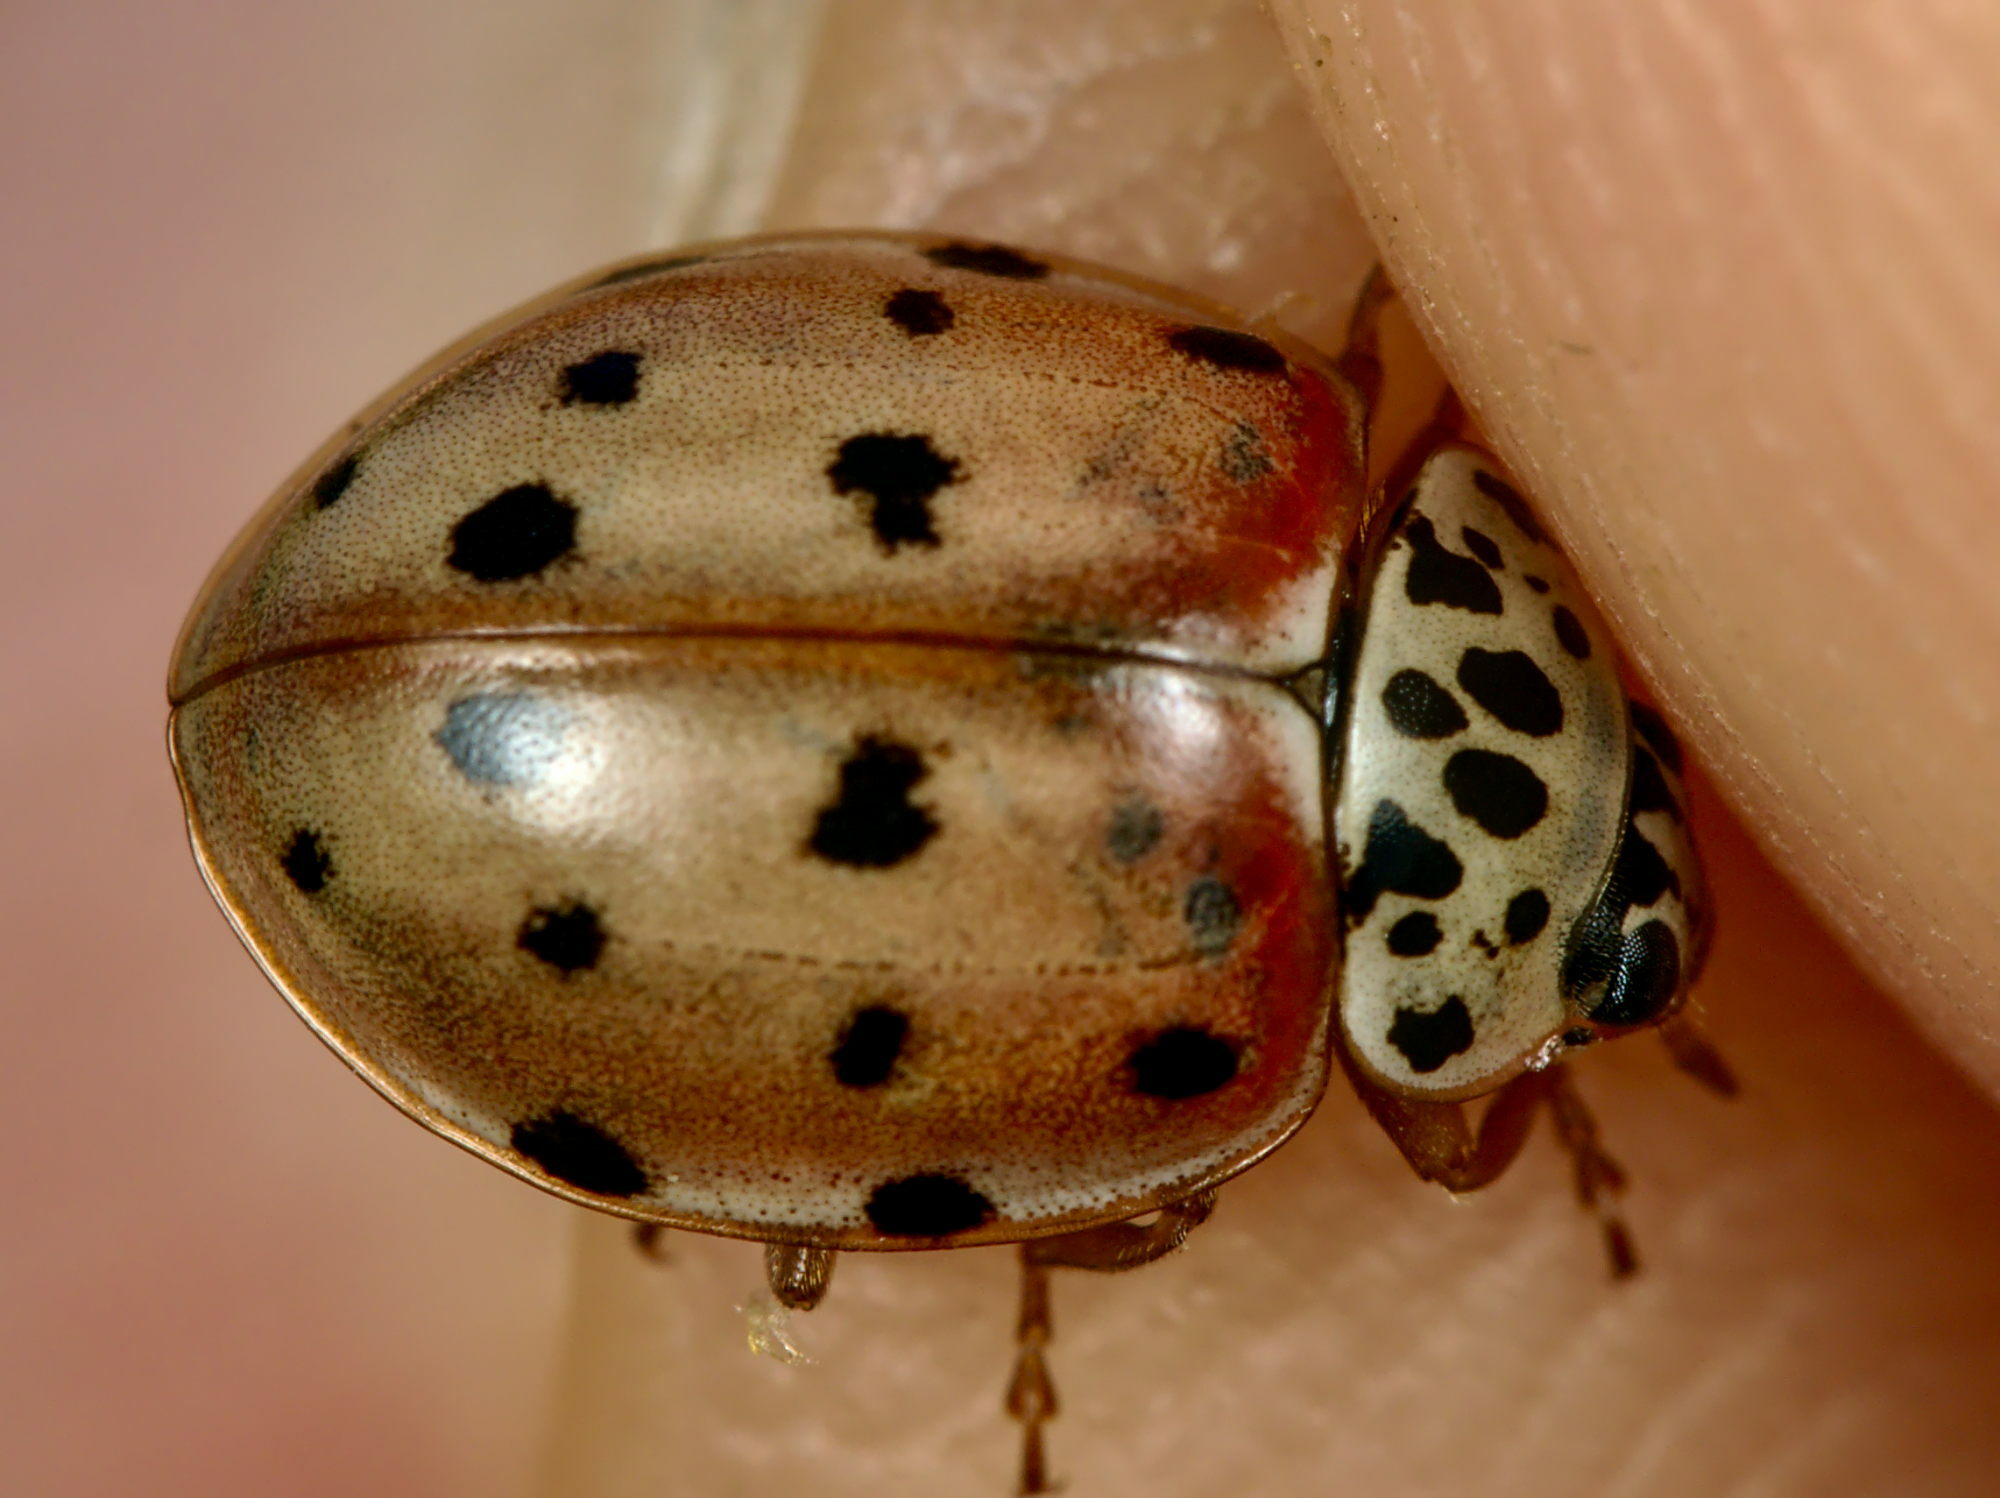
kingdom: Animalia
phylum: Arthropoda
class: Insecta
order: Coleoptera
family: Coccinellidae
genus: Harmonia
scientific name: Harmonia quadripunctata
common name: Cream-streaked ladybird
